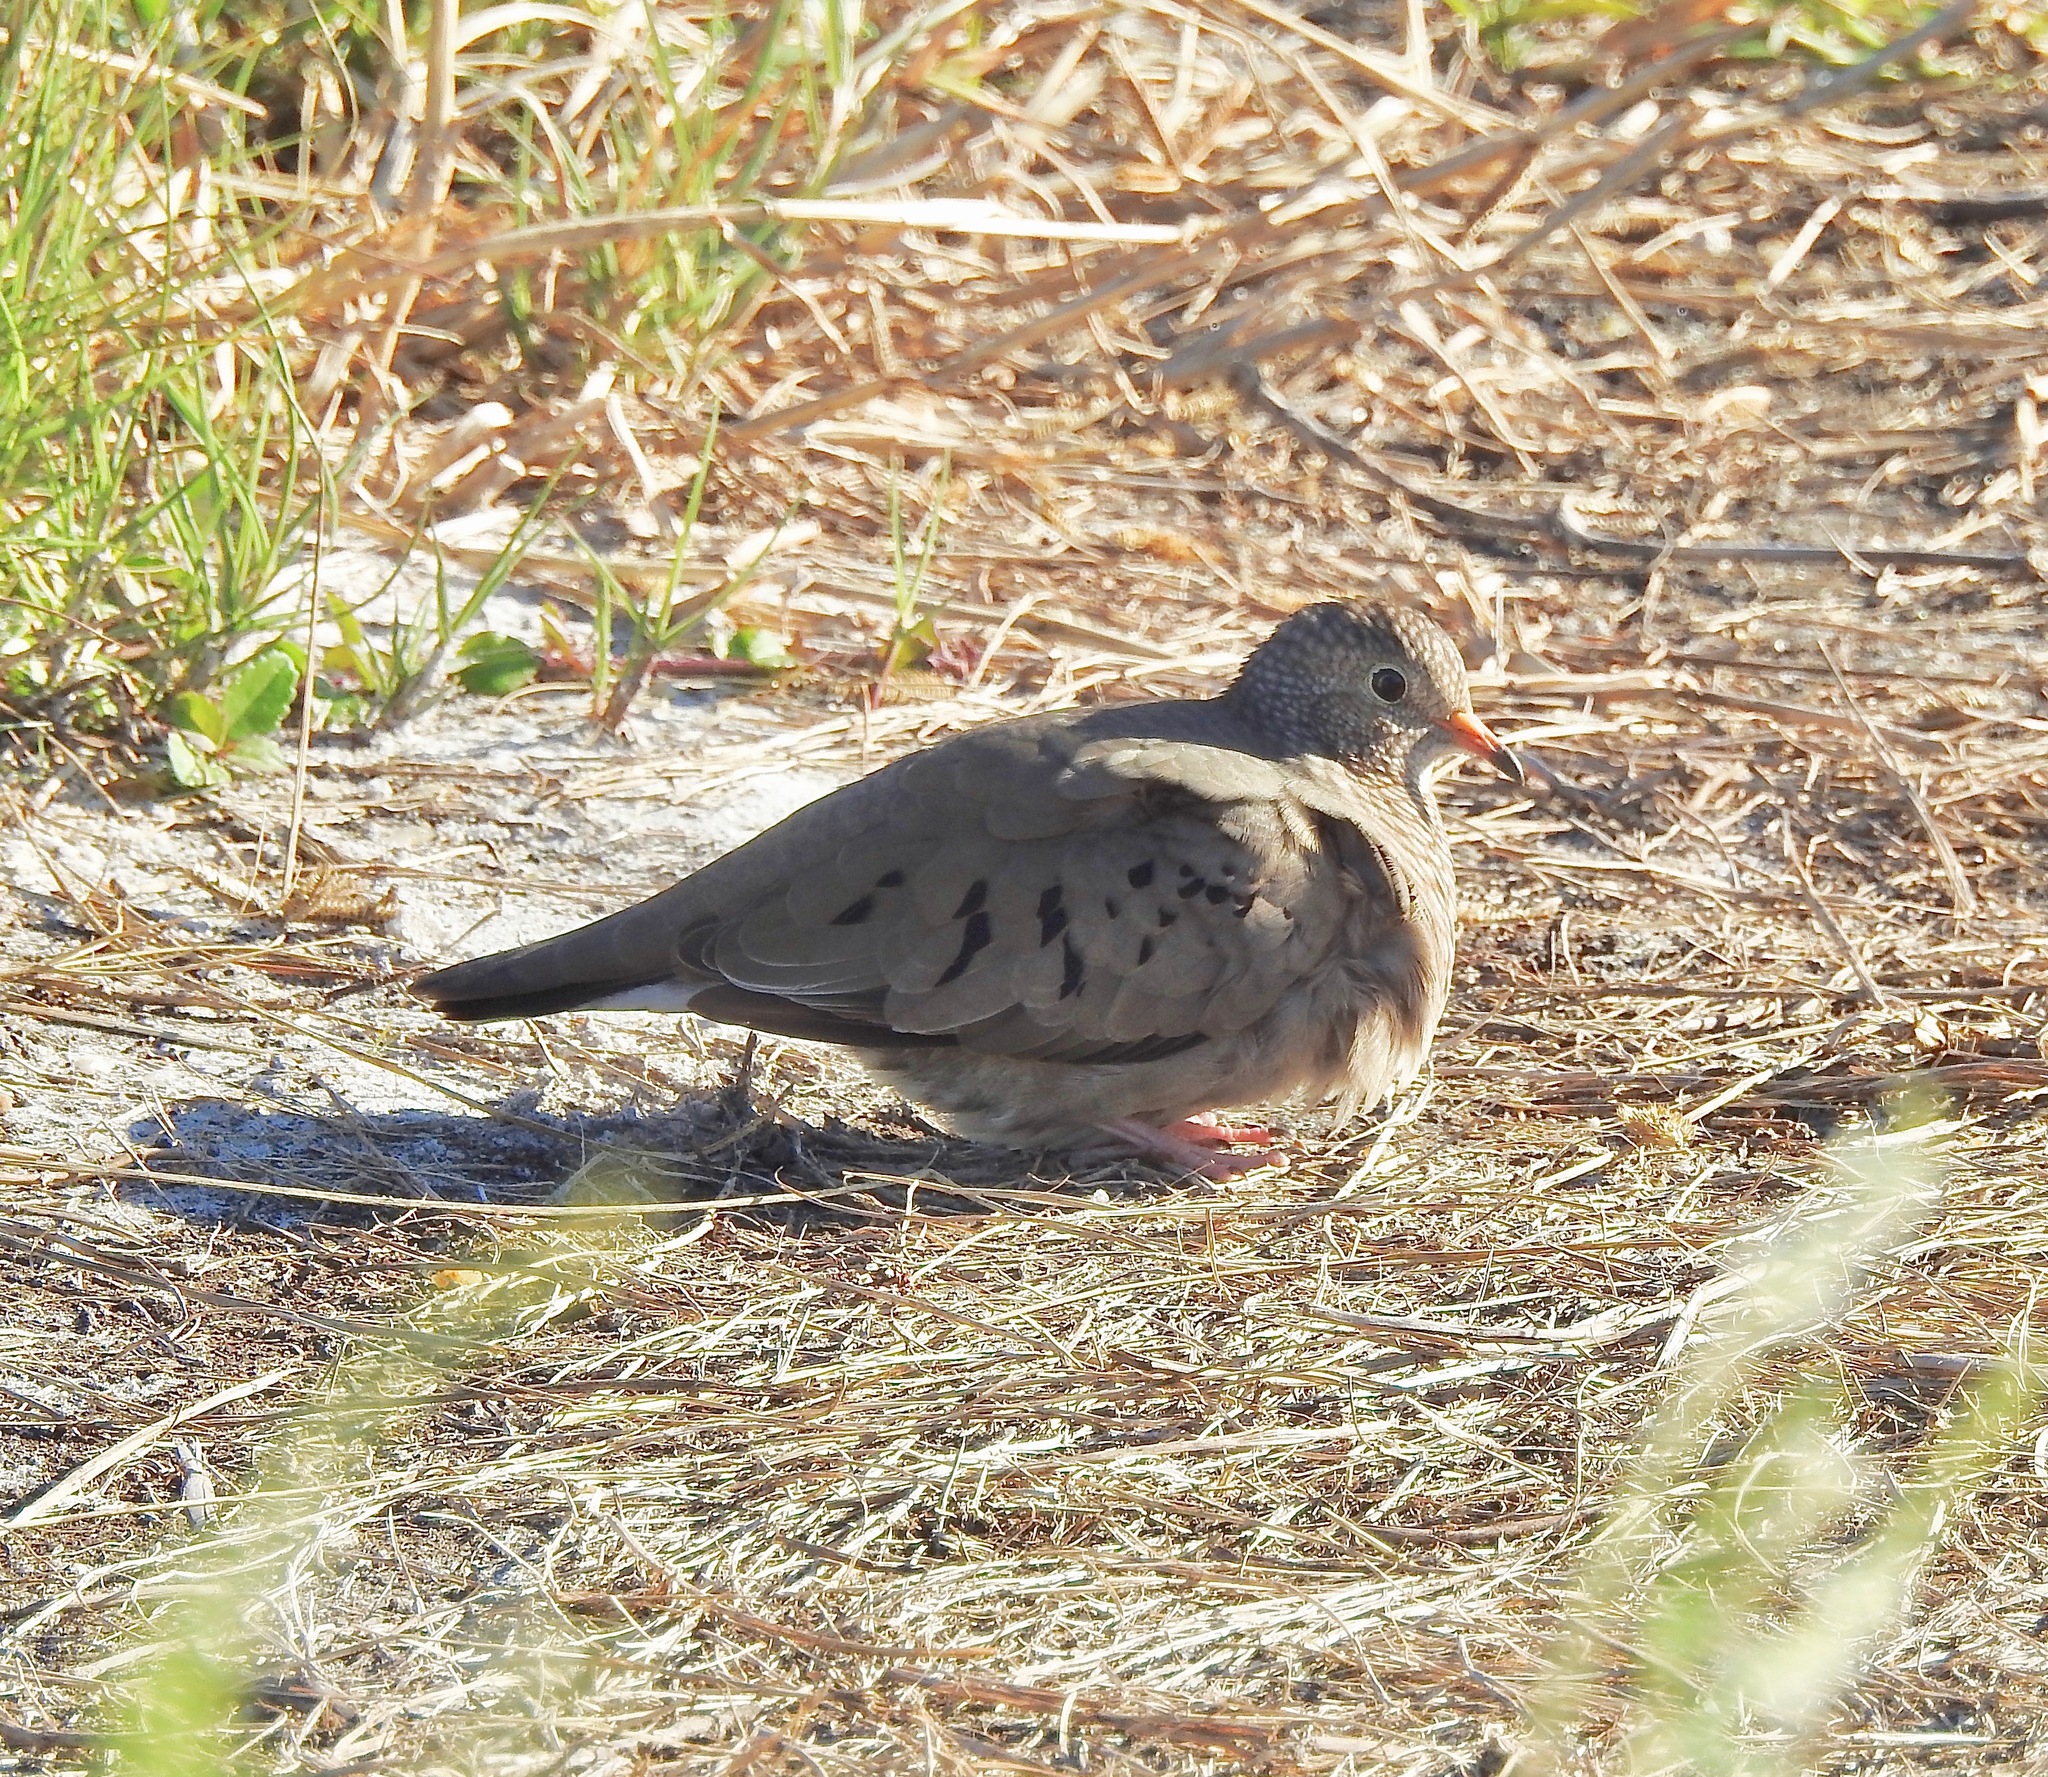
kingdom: Animalia
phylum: Chordata
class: Aves
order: Columbiformes
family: Columbidae
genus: Columbina
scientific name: Columbina passerina
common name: Common ground-dove
